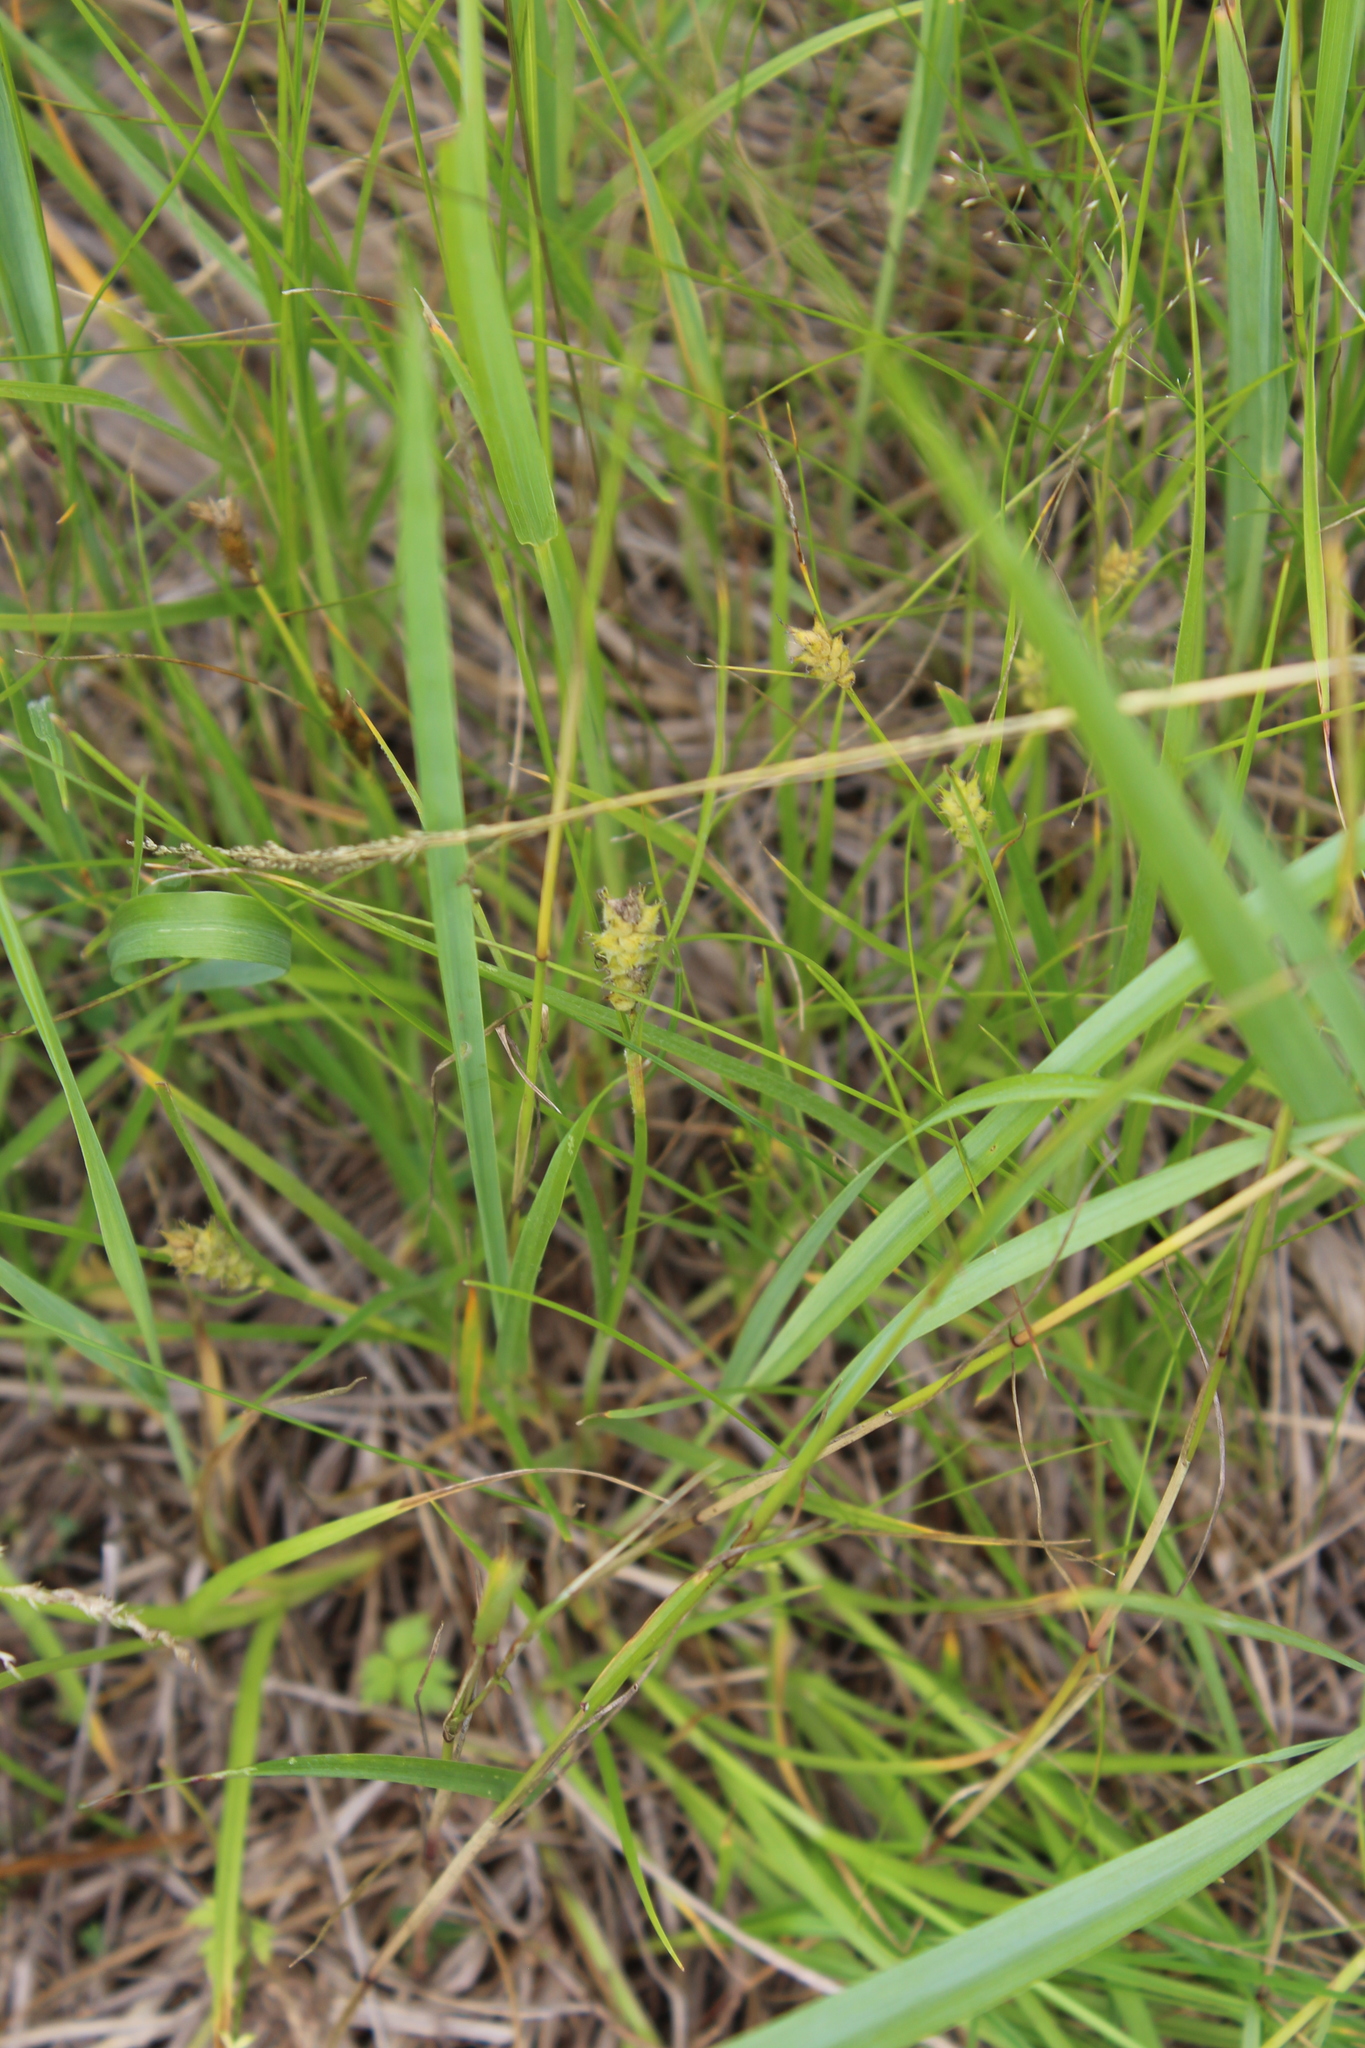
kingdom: Plantae
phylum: Tracheophyta
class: Liliopsida
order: Poales
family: Cyperaceae
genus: Carex
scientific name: Carex hirta
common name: Hairy sedge
